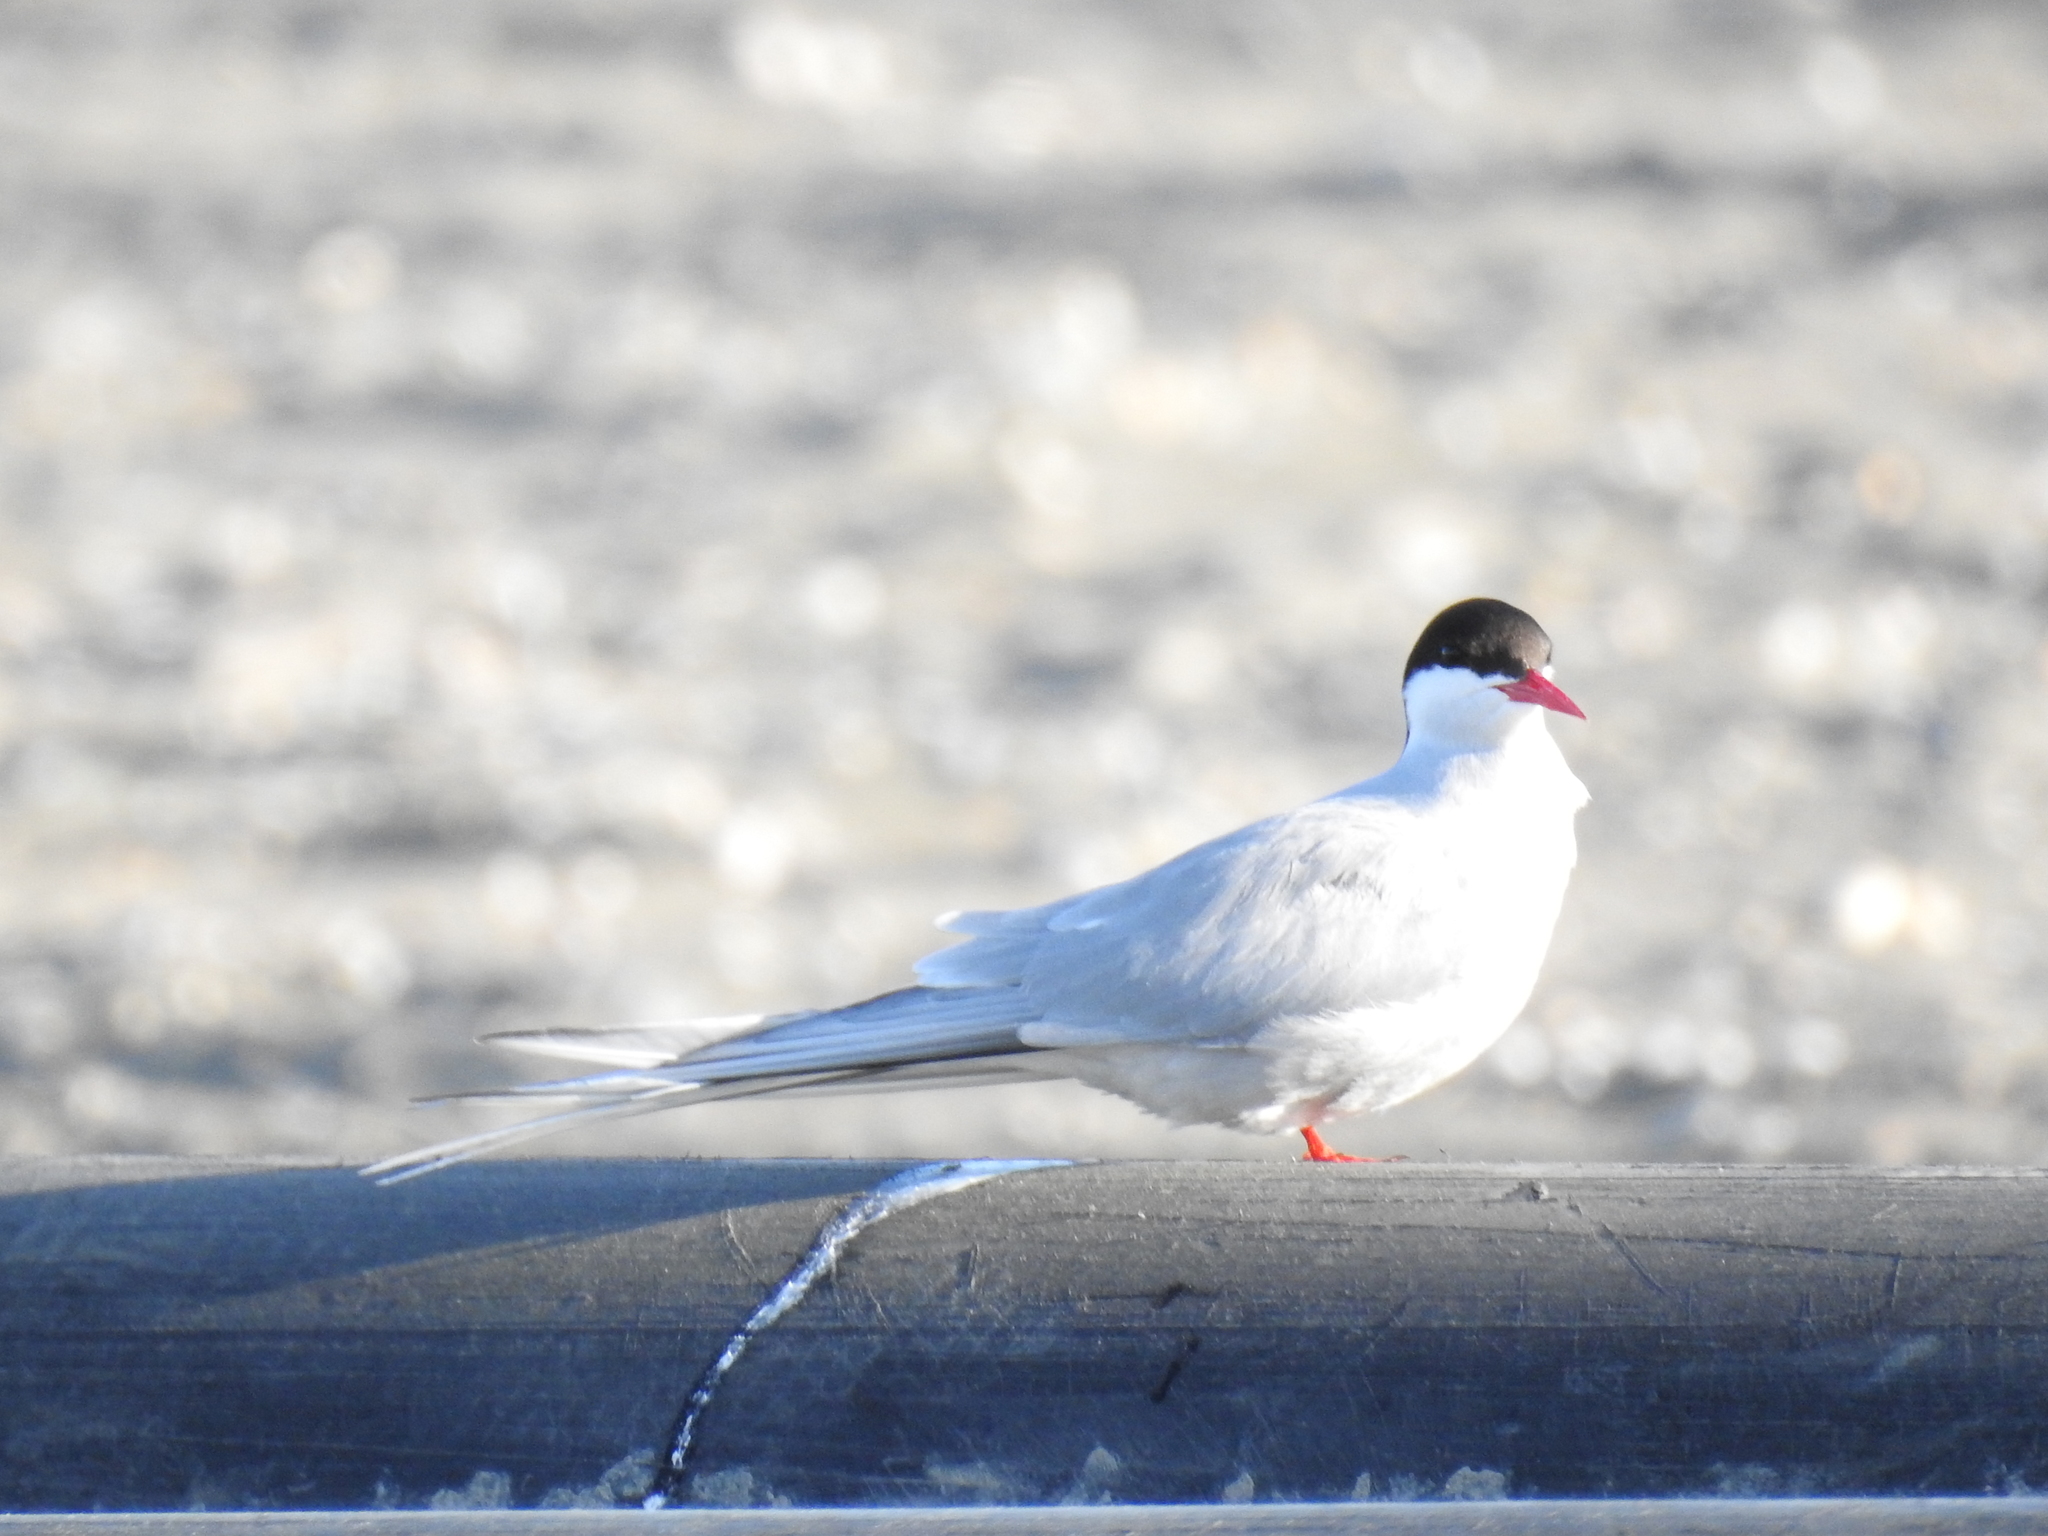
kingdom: Animalia
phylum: Chordata
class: Aves
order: Charadriiformes
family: Laridae
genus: Sterna
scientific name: Sterna paradisaea
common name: Arctic tern
